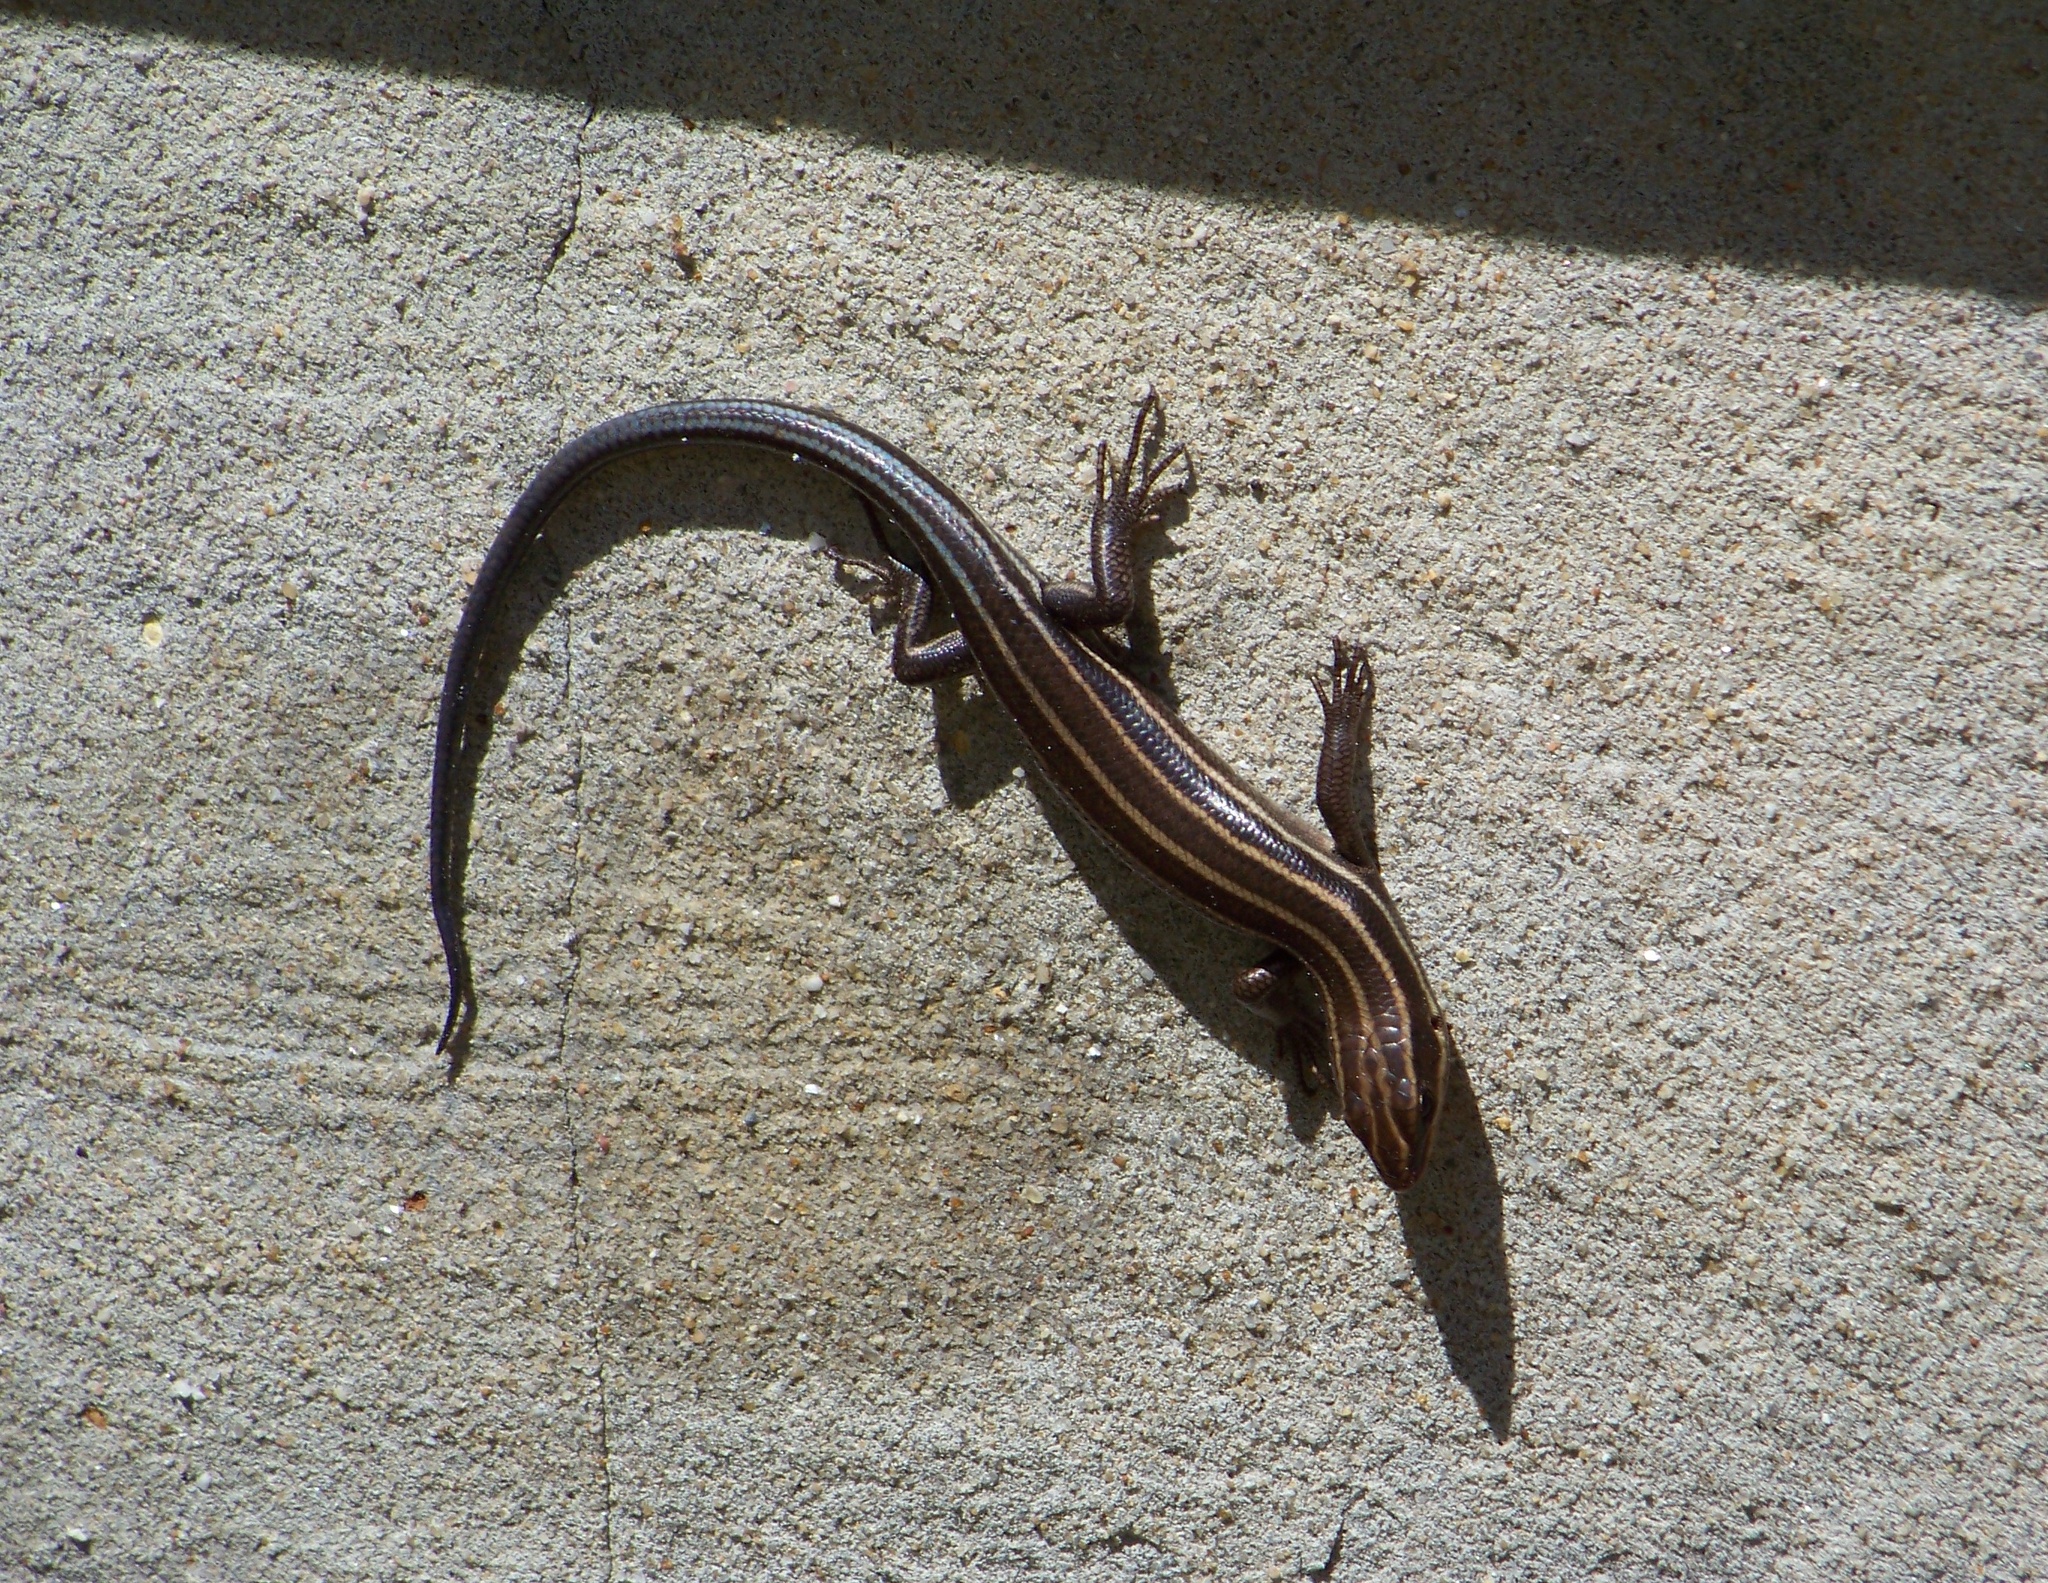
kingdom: Animalia
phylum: Chordata
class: Squamata
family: Scincidae
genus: Plestiodon
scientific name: Plestiodon fasciatus
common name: Five-lined skink
